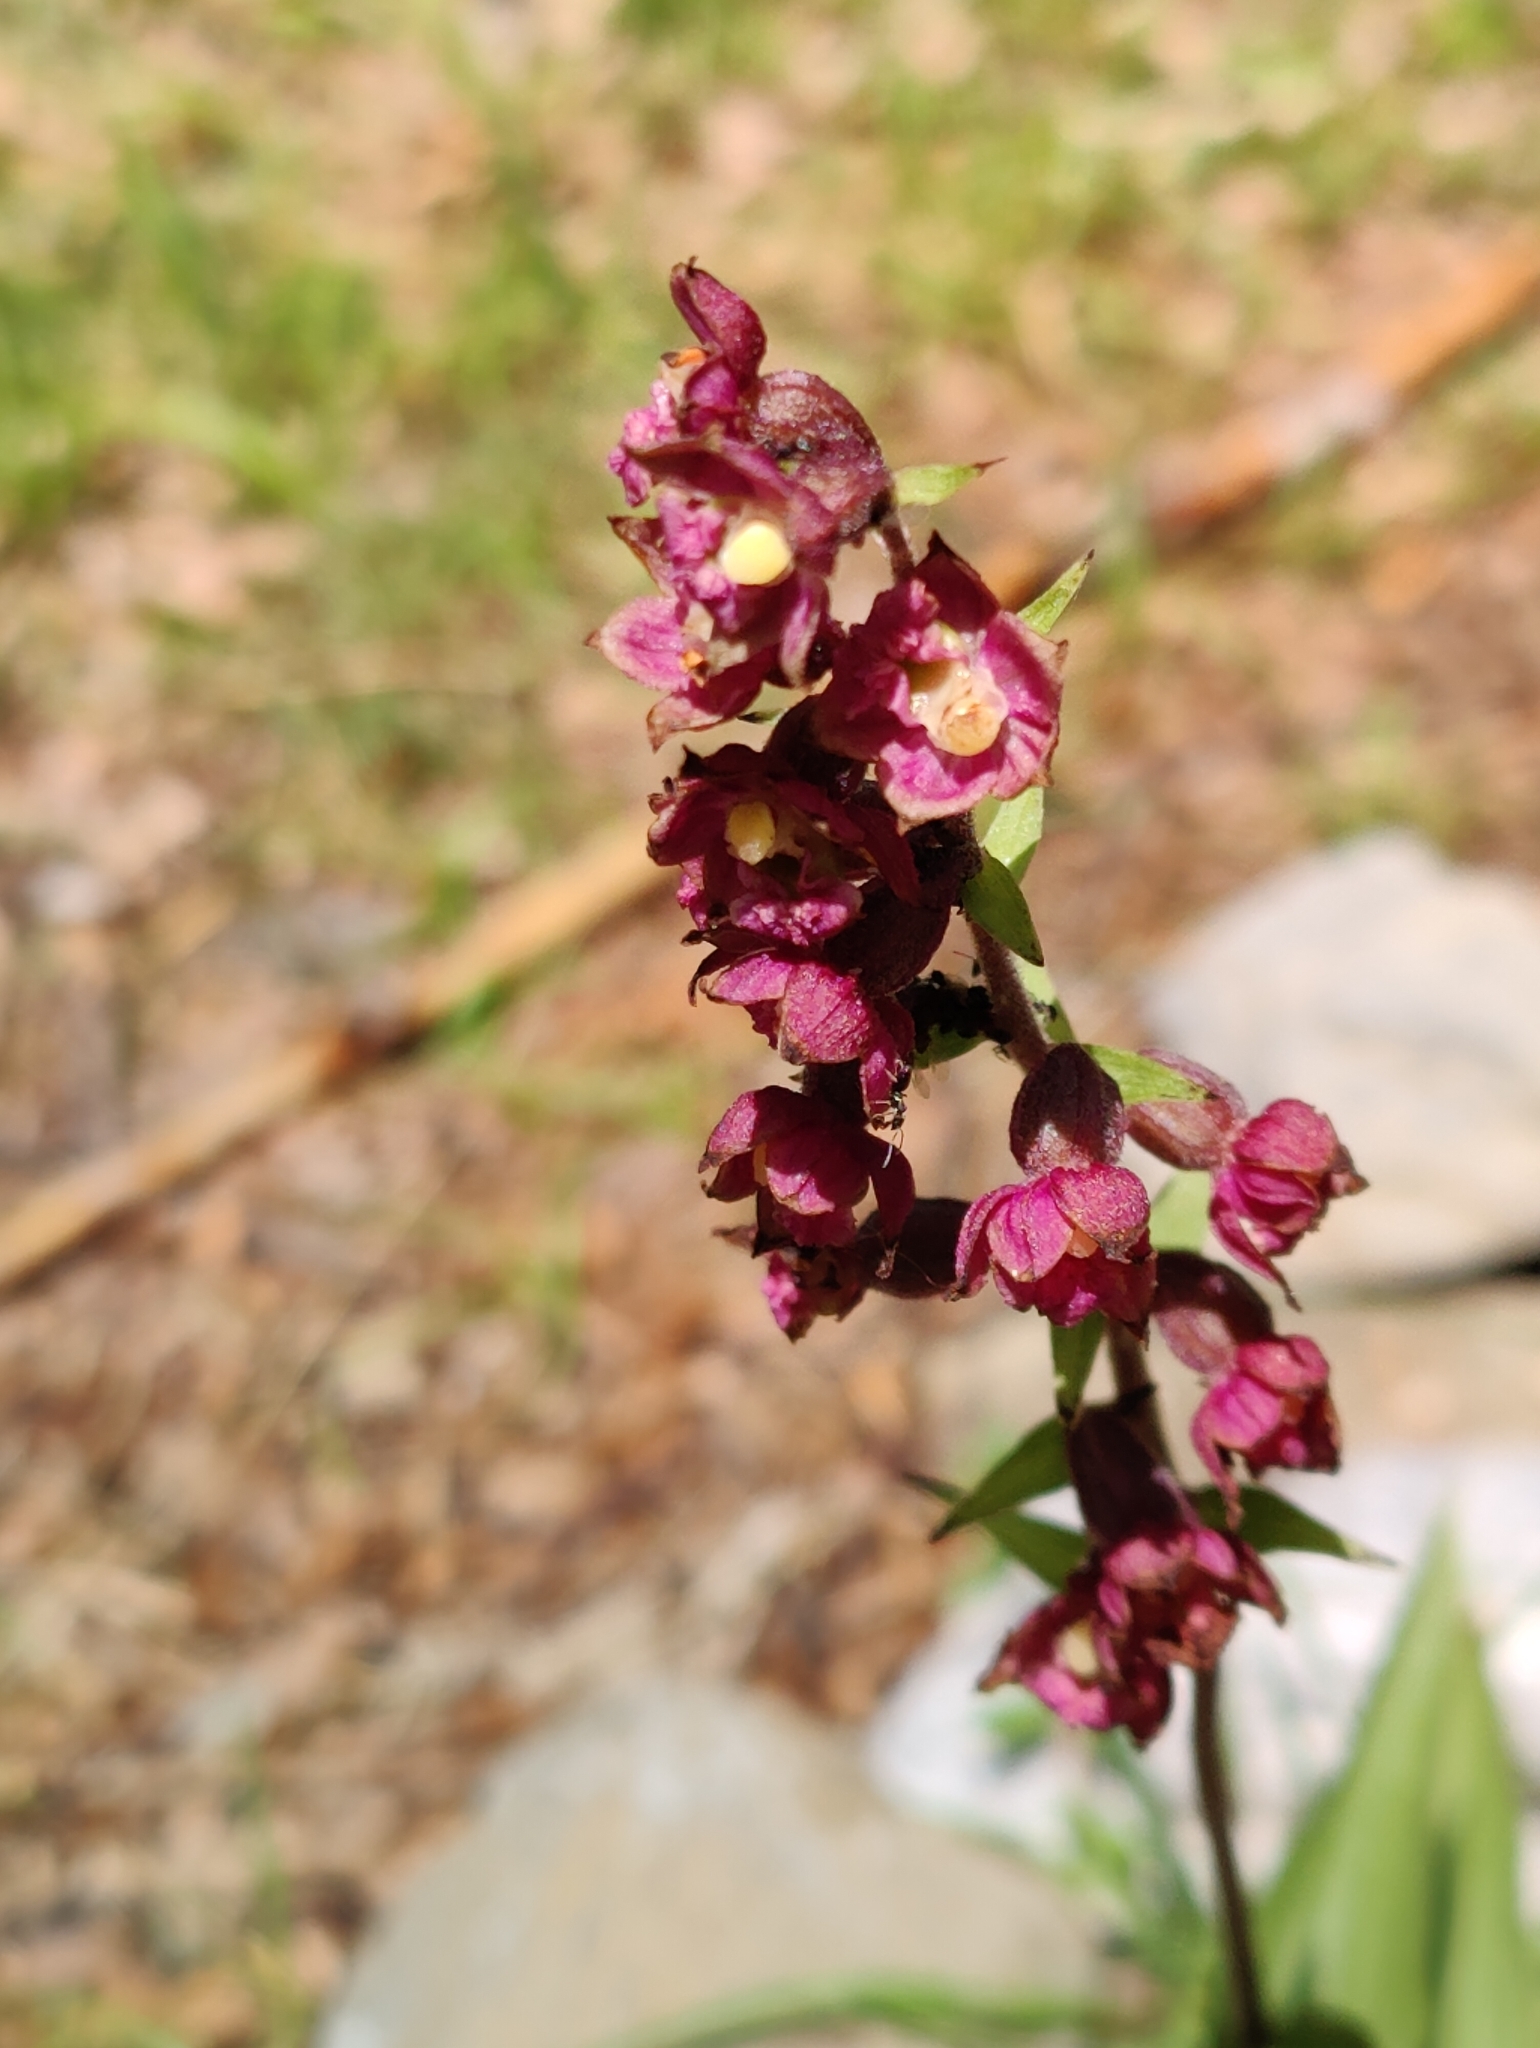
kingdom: Plantae
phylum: Tracheophyta
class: Liliopsida
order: Asparagales
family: Orchidaceae
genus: Epipactis
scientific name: Epipactis atrorubens
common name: Dark-red helleborine
